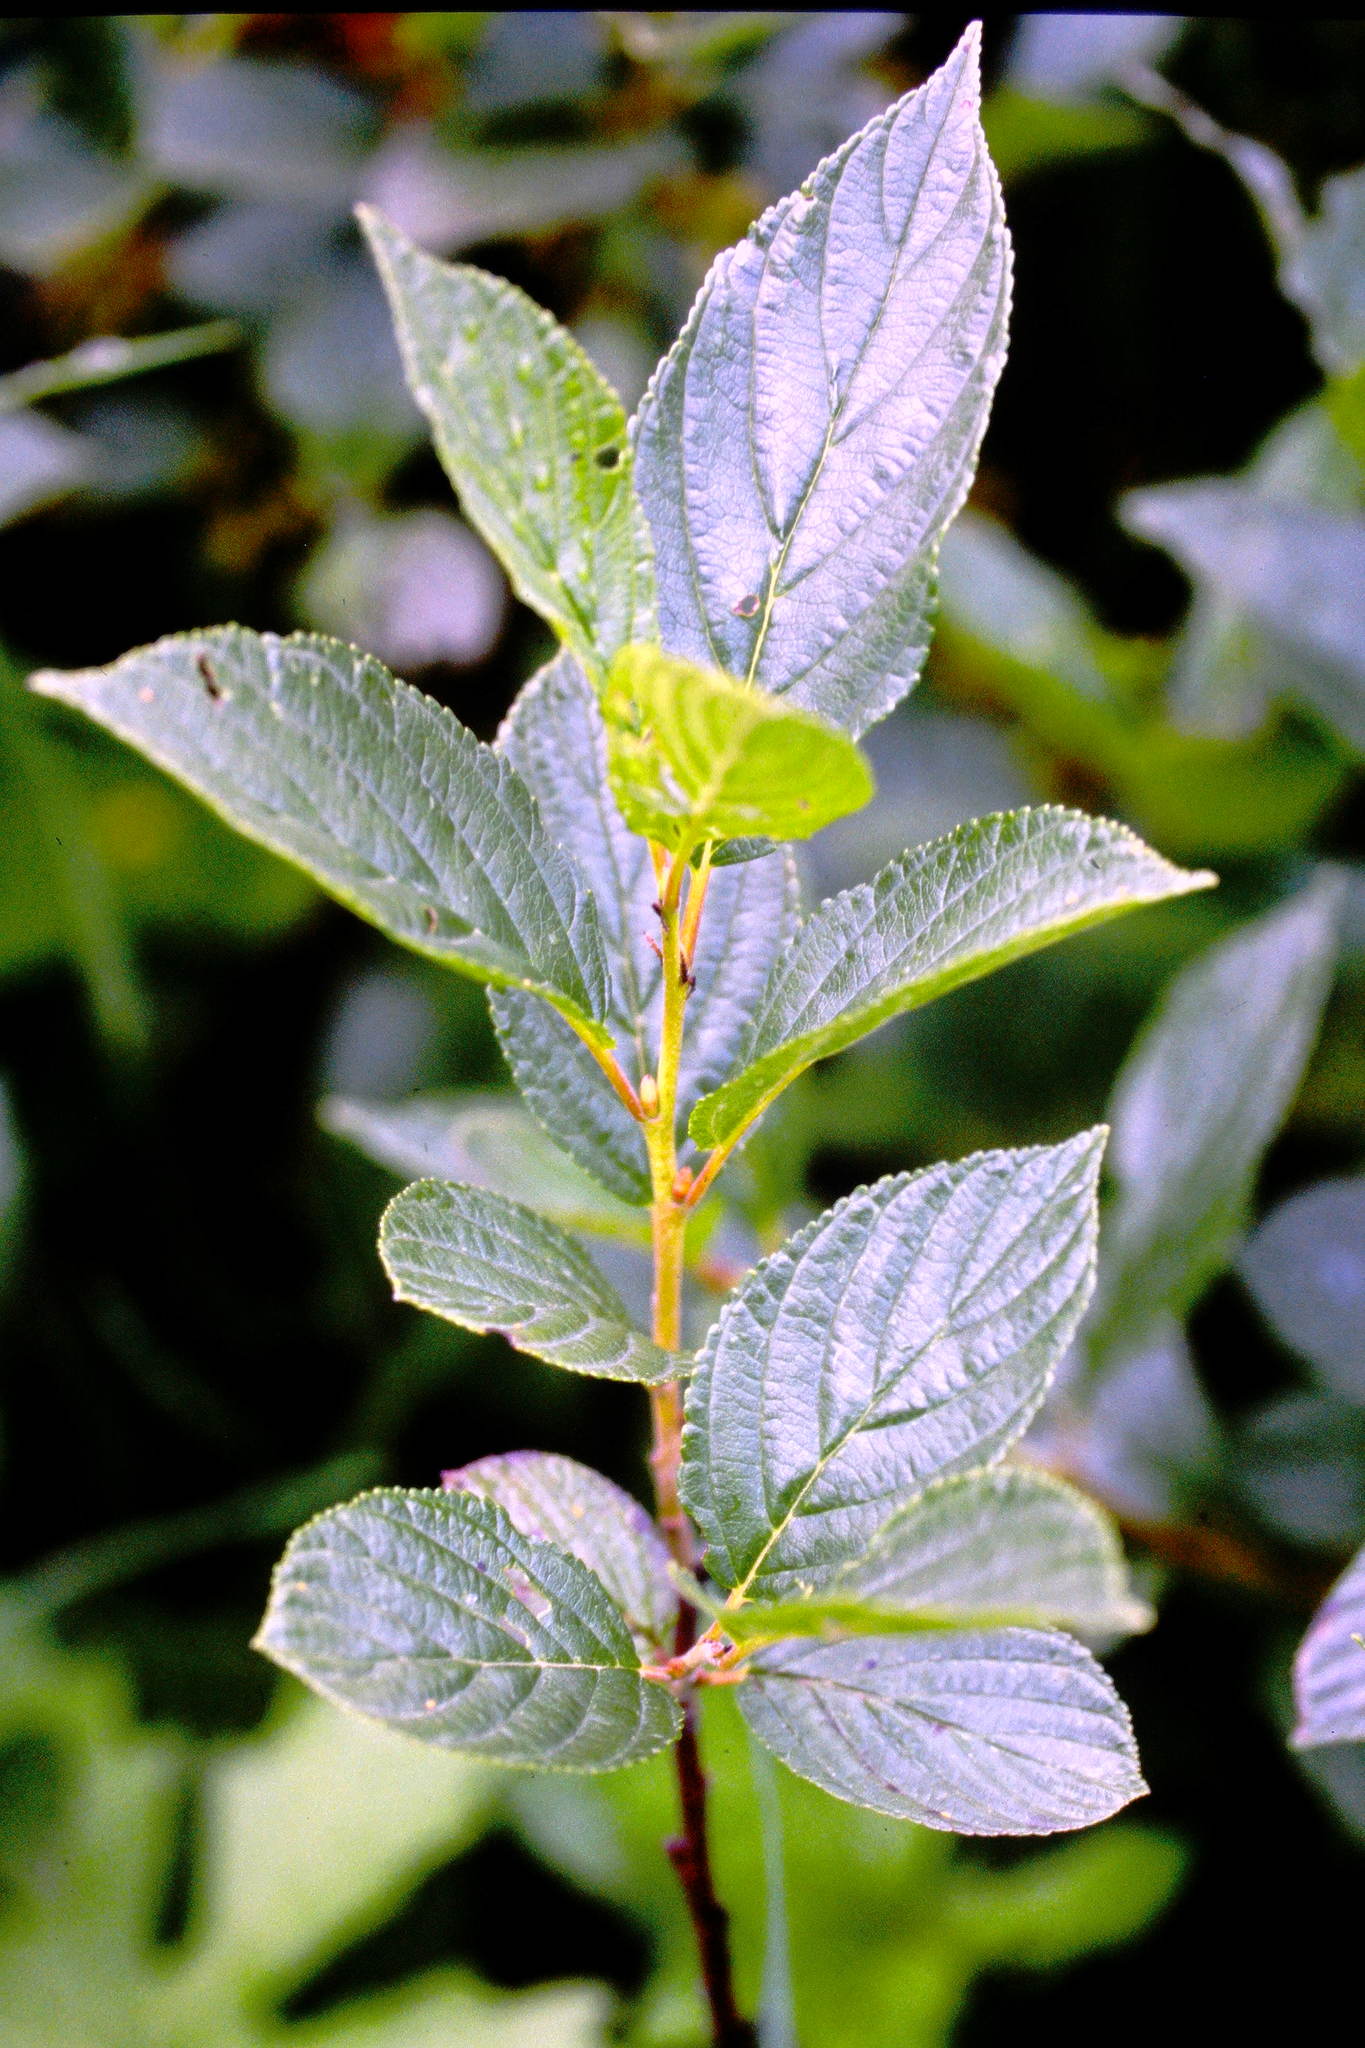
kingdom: Plantae
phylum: Tracheophyta
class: Magnoliopsida
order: Rosales
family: Rhamnaceae
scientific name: Rhamnaceae
